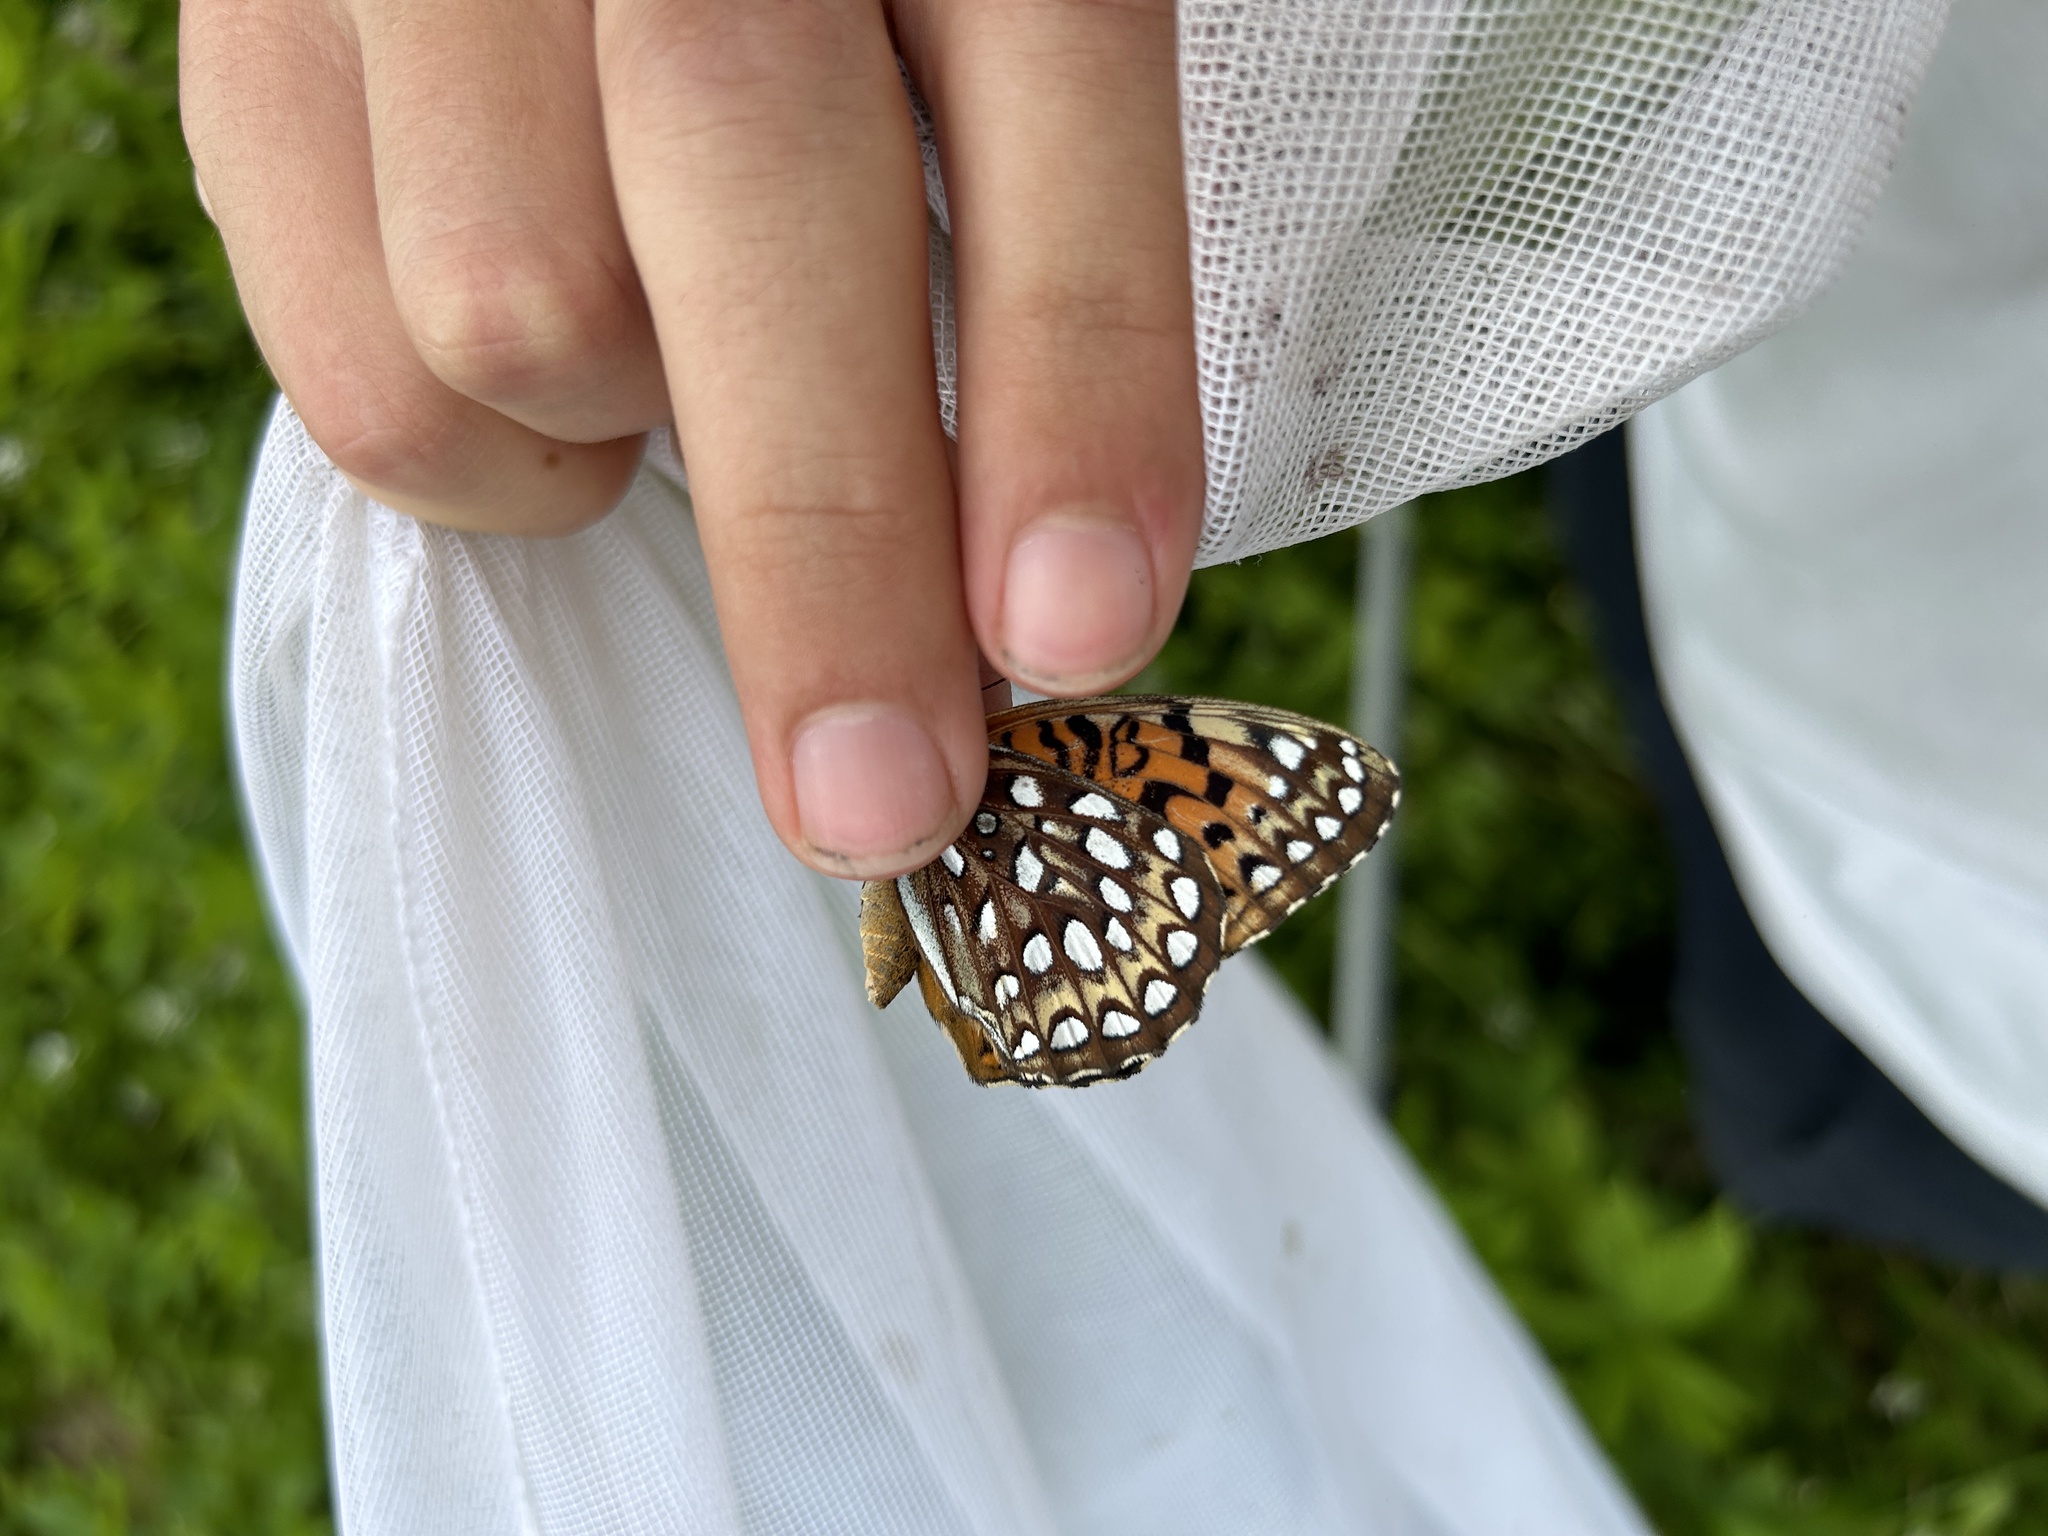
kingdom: Animalia
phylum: Arthropoda
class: Insecta
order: Lepidoptera
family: Nymphalidae
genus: Speyeria
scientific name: Speyeria atlantis
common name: Atlantis fritillary
